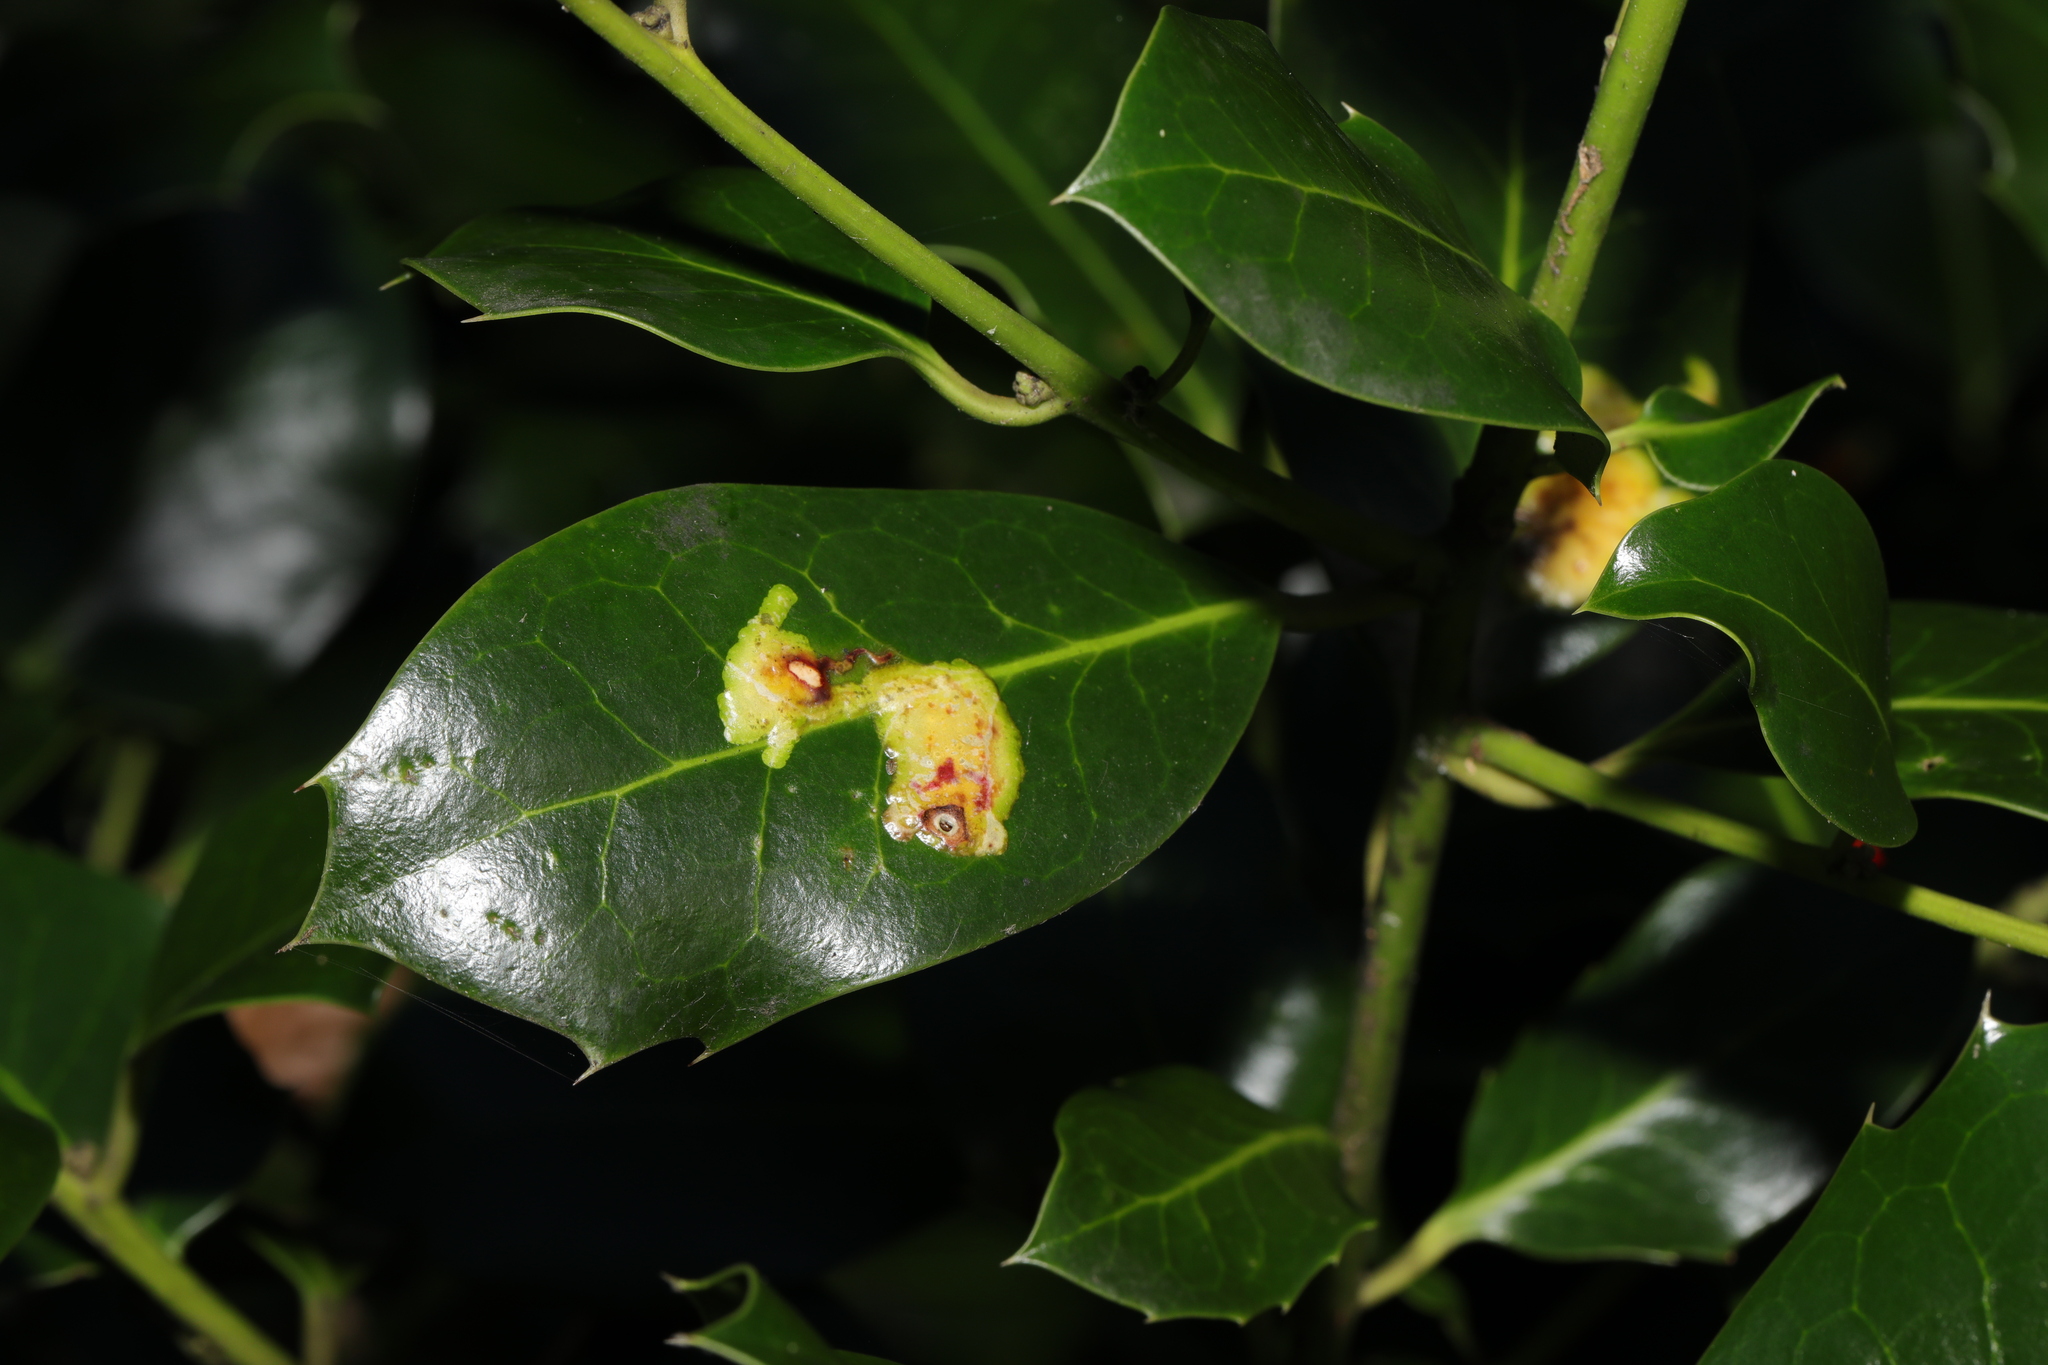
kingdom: Animalia
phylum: Arthropoda
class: Insecta
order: Diptera
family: Agromyzidae
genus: Phytomyza
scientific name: Phytomyza ilicis
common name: Holly leafminer
